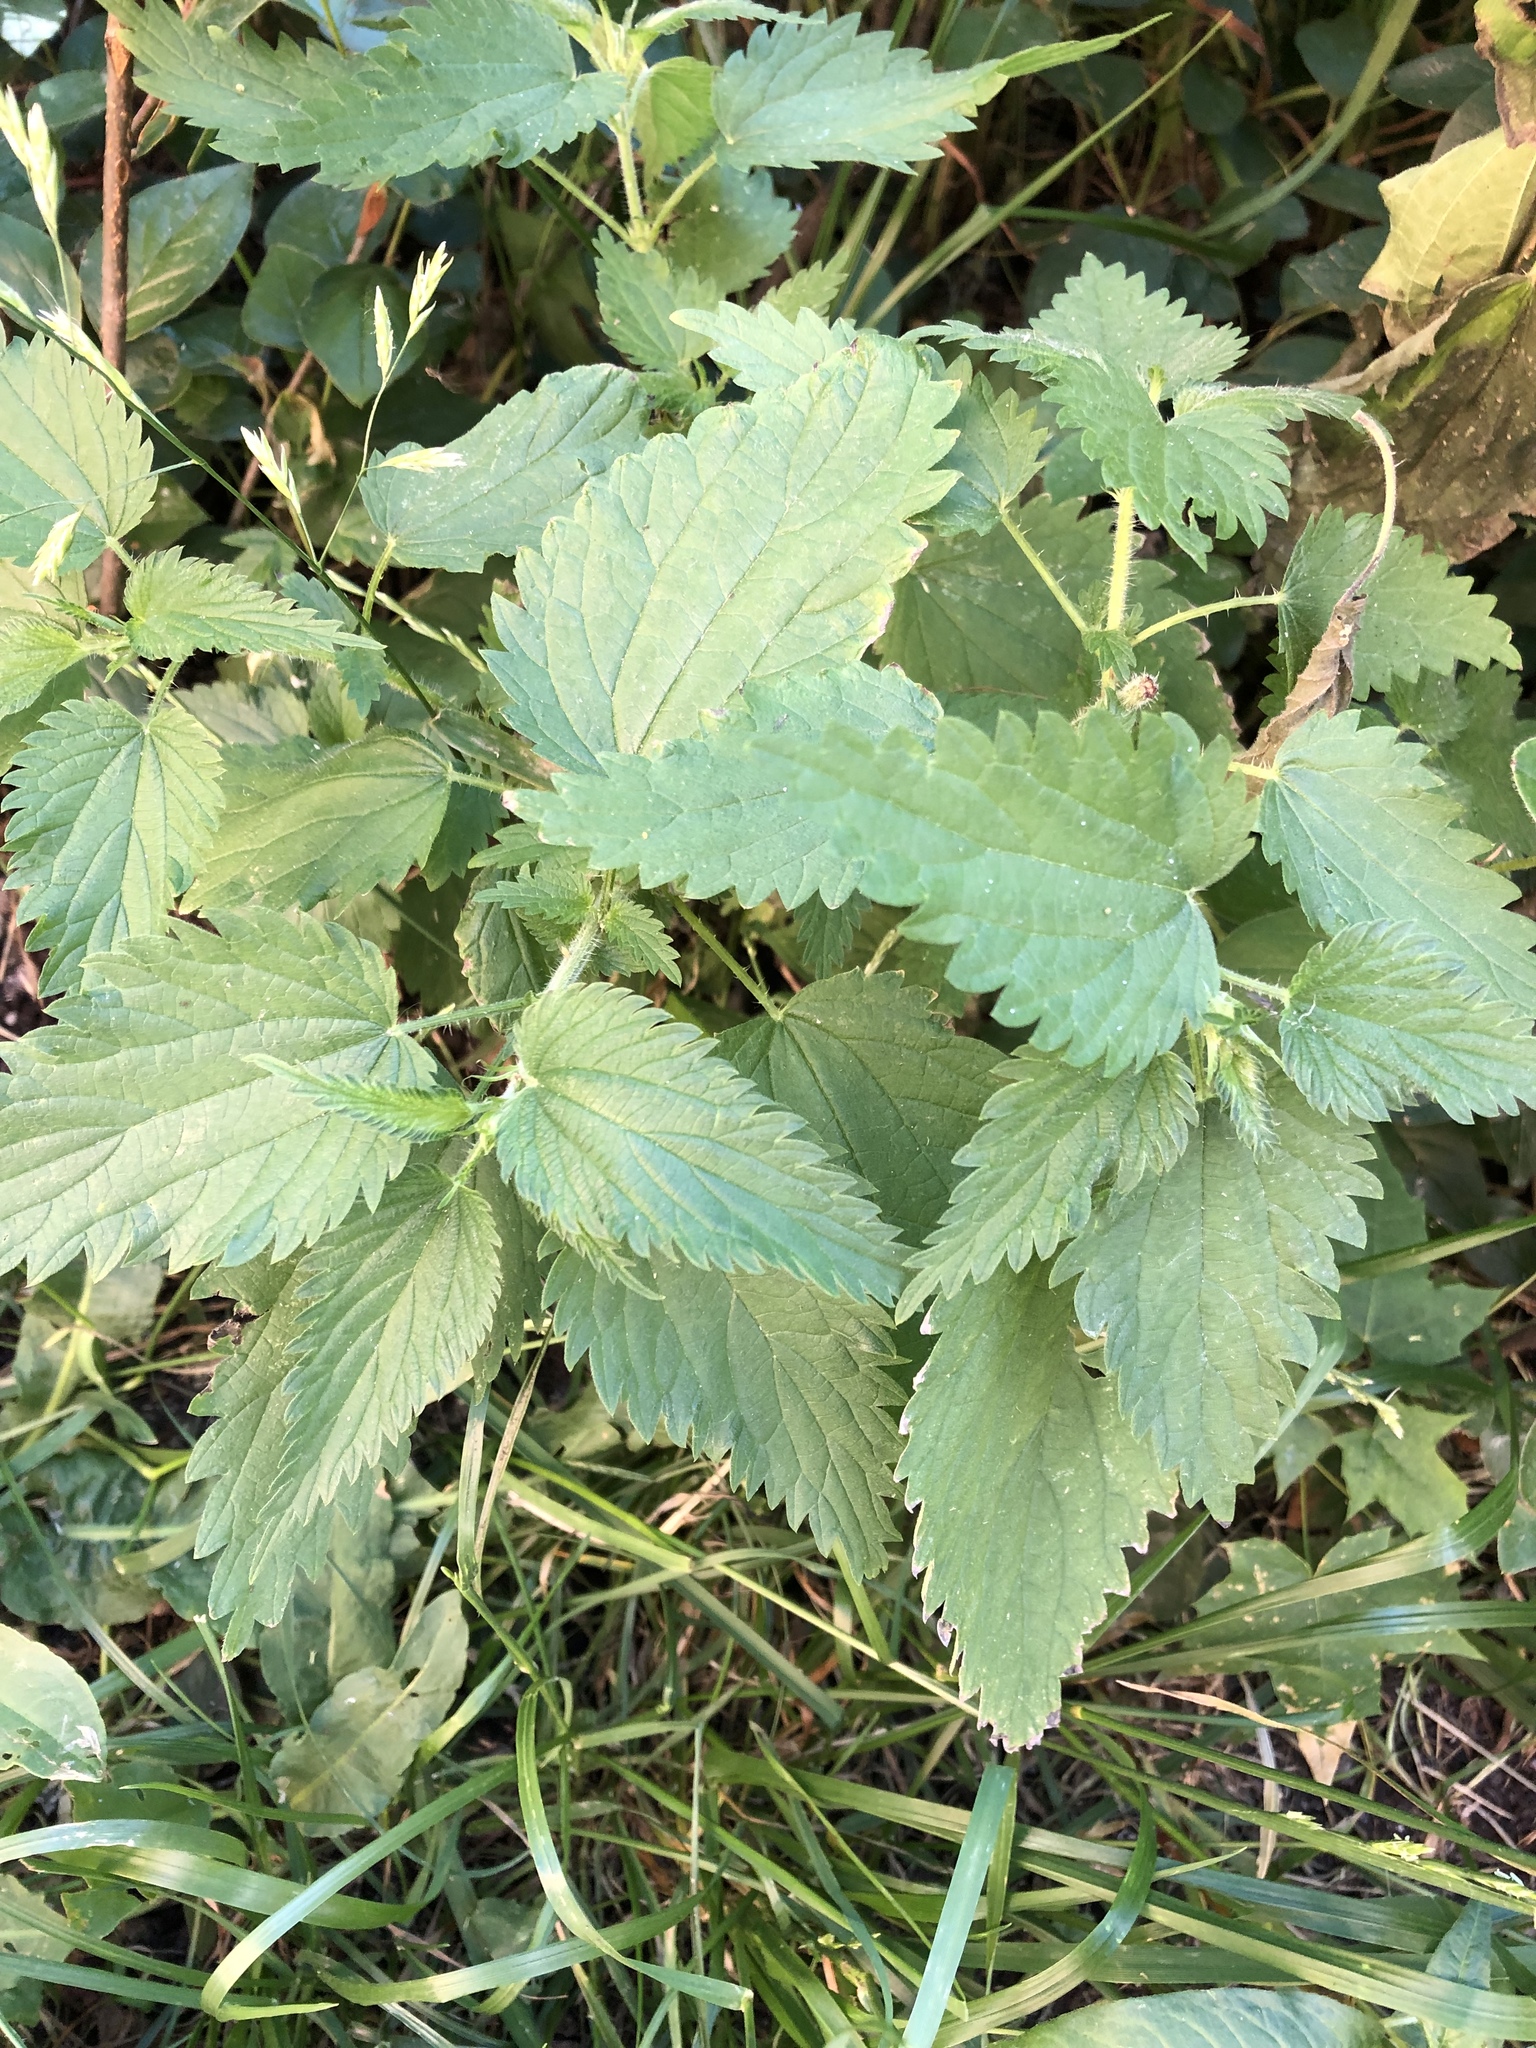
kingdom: Plantae
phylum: Tracheophyta
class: Magnoliopsida
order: Rosales
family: Urticaceae
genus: Urtica
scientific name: Urtica dioica
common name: Common nettle
